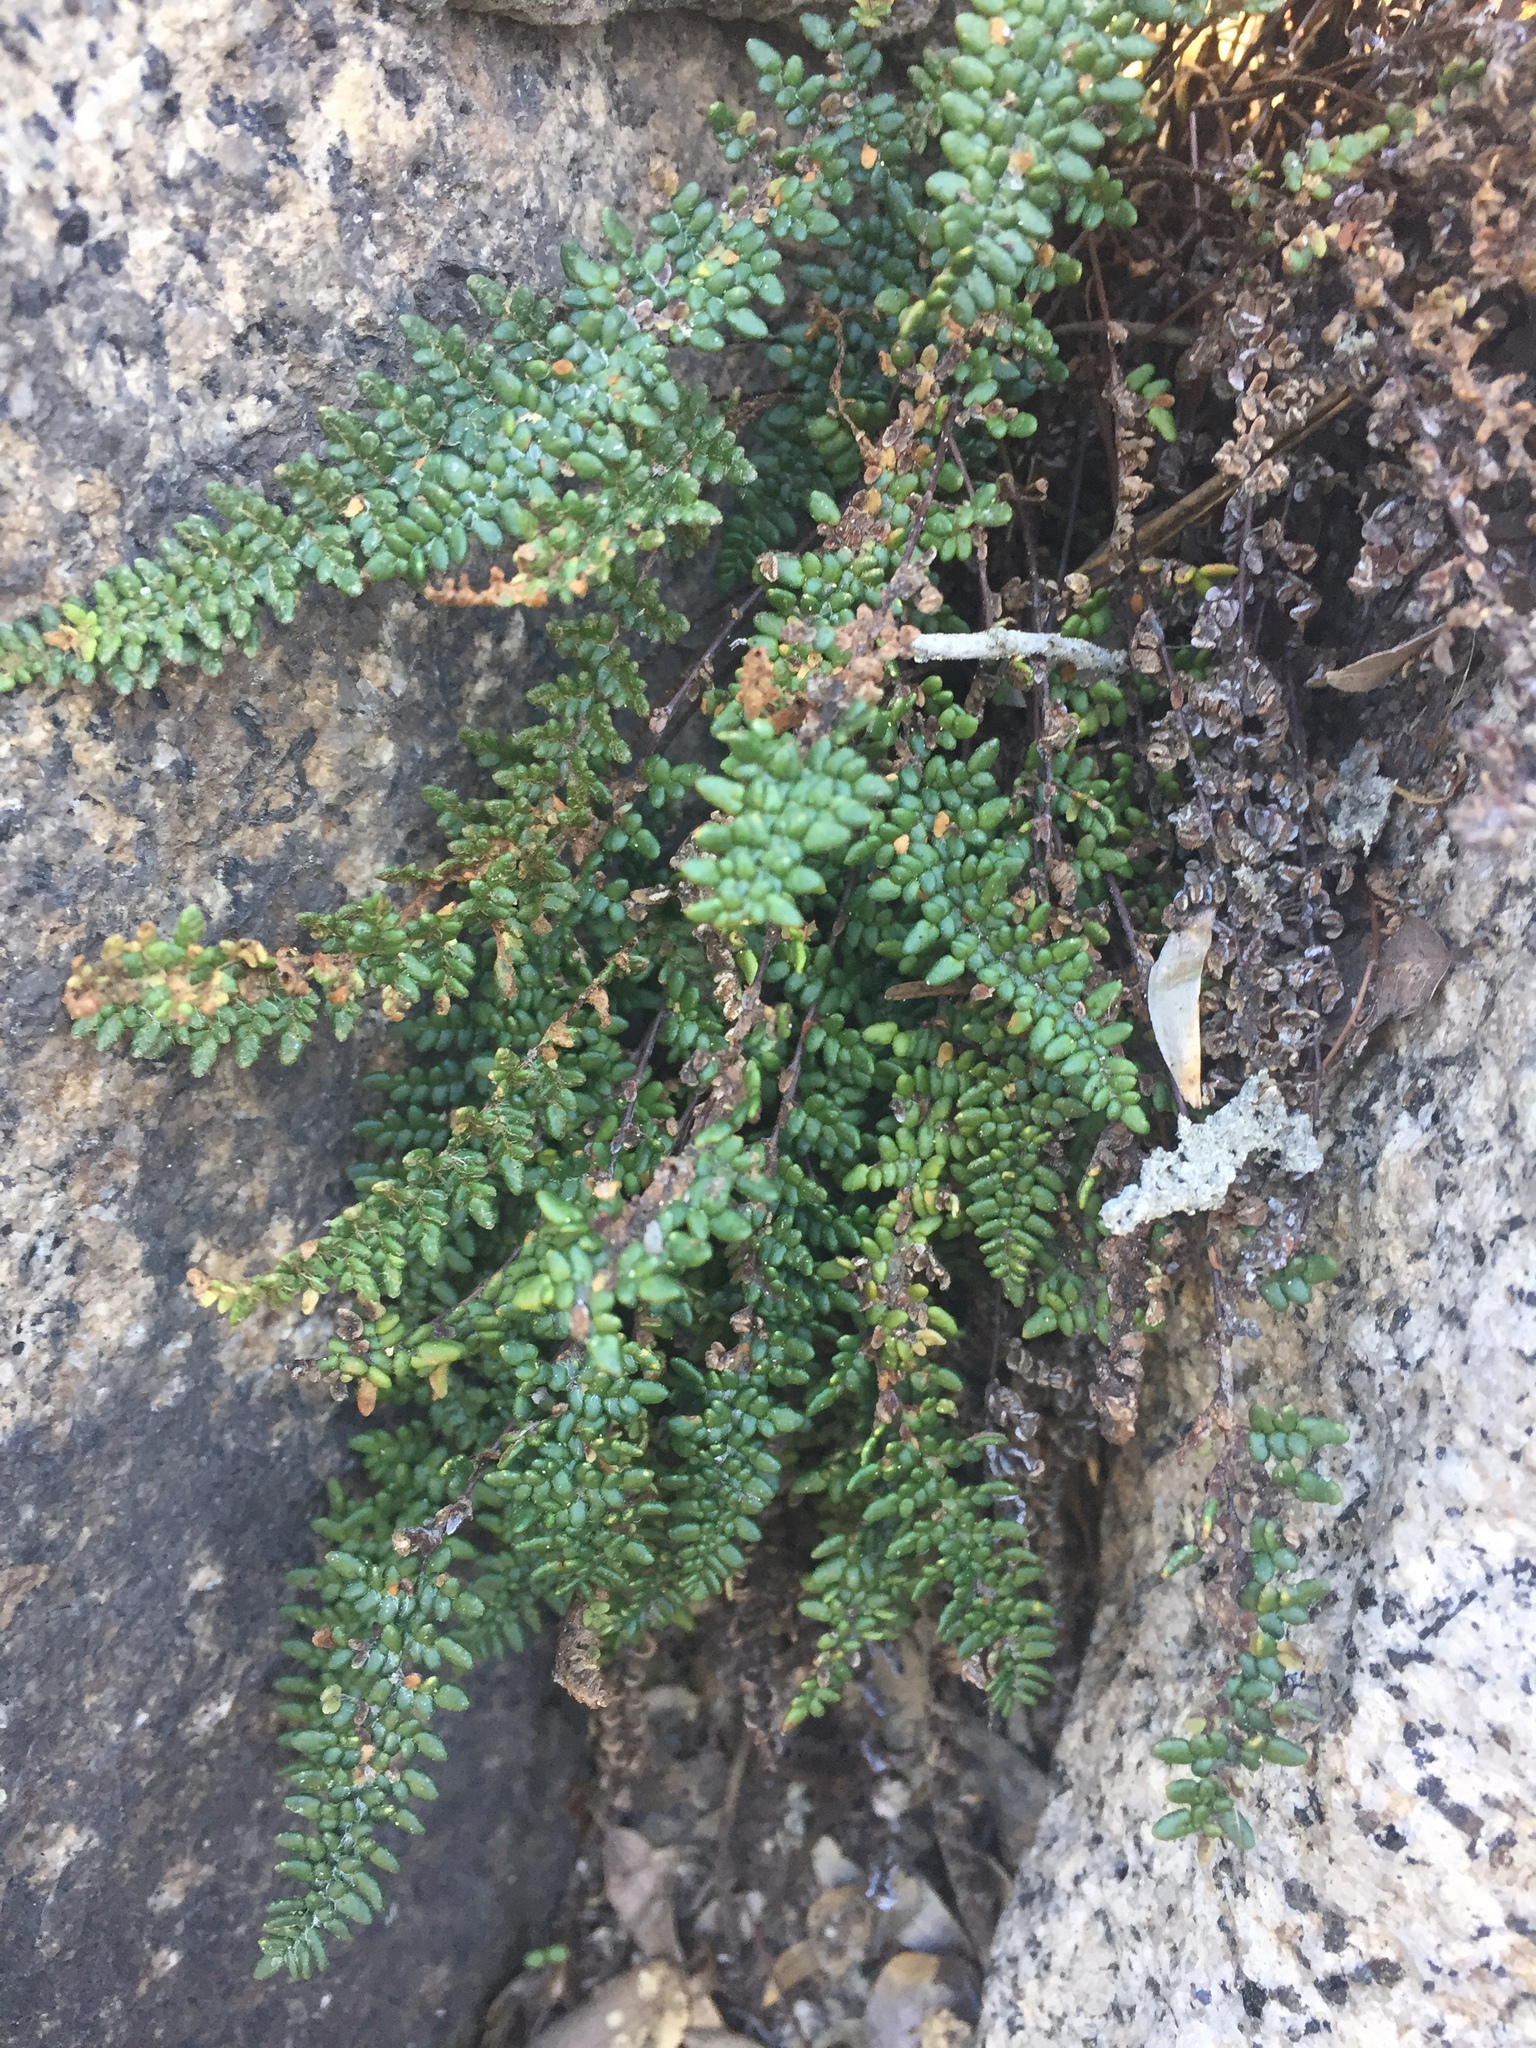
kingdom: Plantae
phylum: Tracheophyta
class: Polypodiopsida
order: Polypodiales
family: Pteridaceae
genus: Myriopteris
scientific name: Myriopteris gracillima
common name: Lace fern
